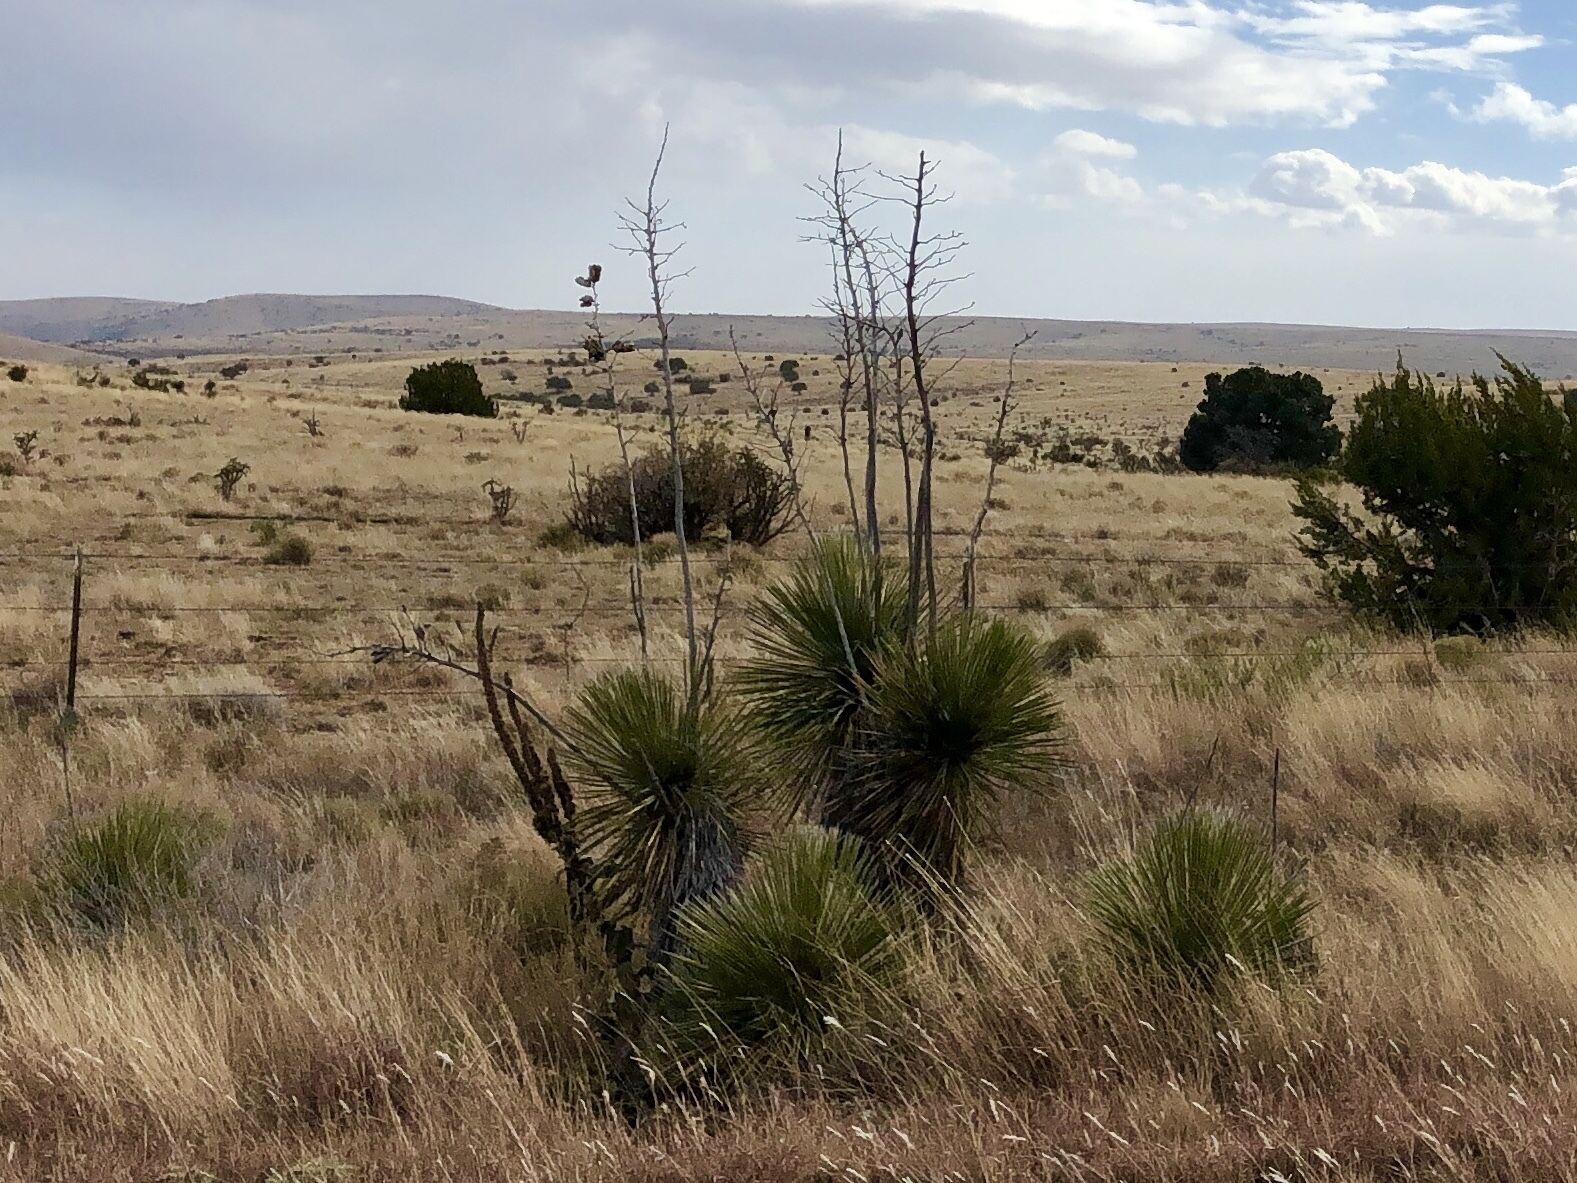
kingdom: Plantae
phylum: Tracheophyta
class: Liliopsida
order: Asparagales
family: Asparagaceae
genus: Yucca
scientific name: Yucca elata
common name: Palmella
